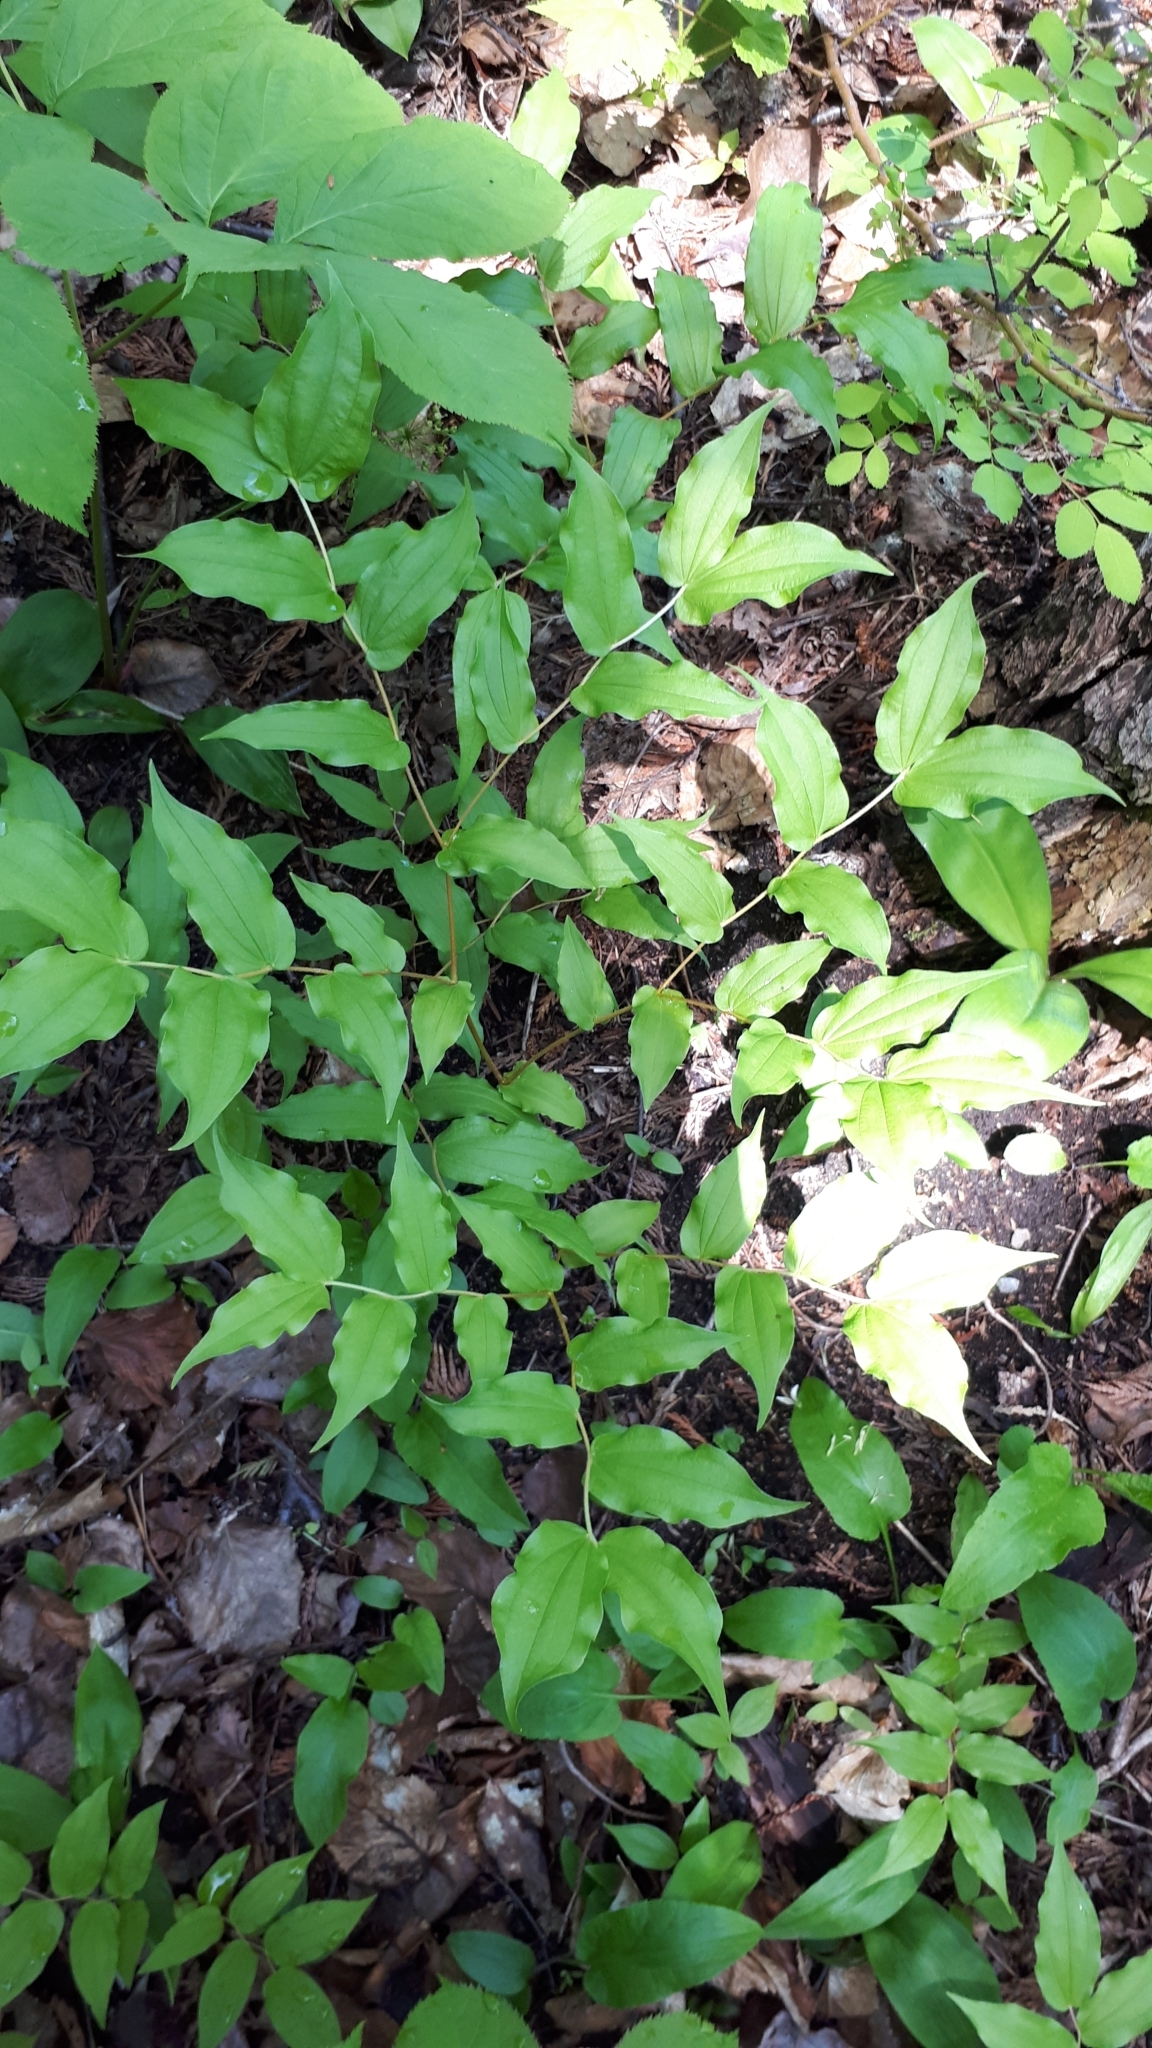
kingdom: Plantae
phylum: Tracheophyta
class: Liliopsida
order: Liliales
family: Liliaceae
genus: Prosartes
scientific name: Prosartes hookeri
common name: Fairy-bells
